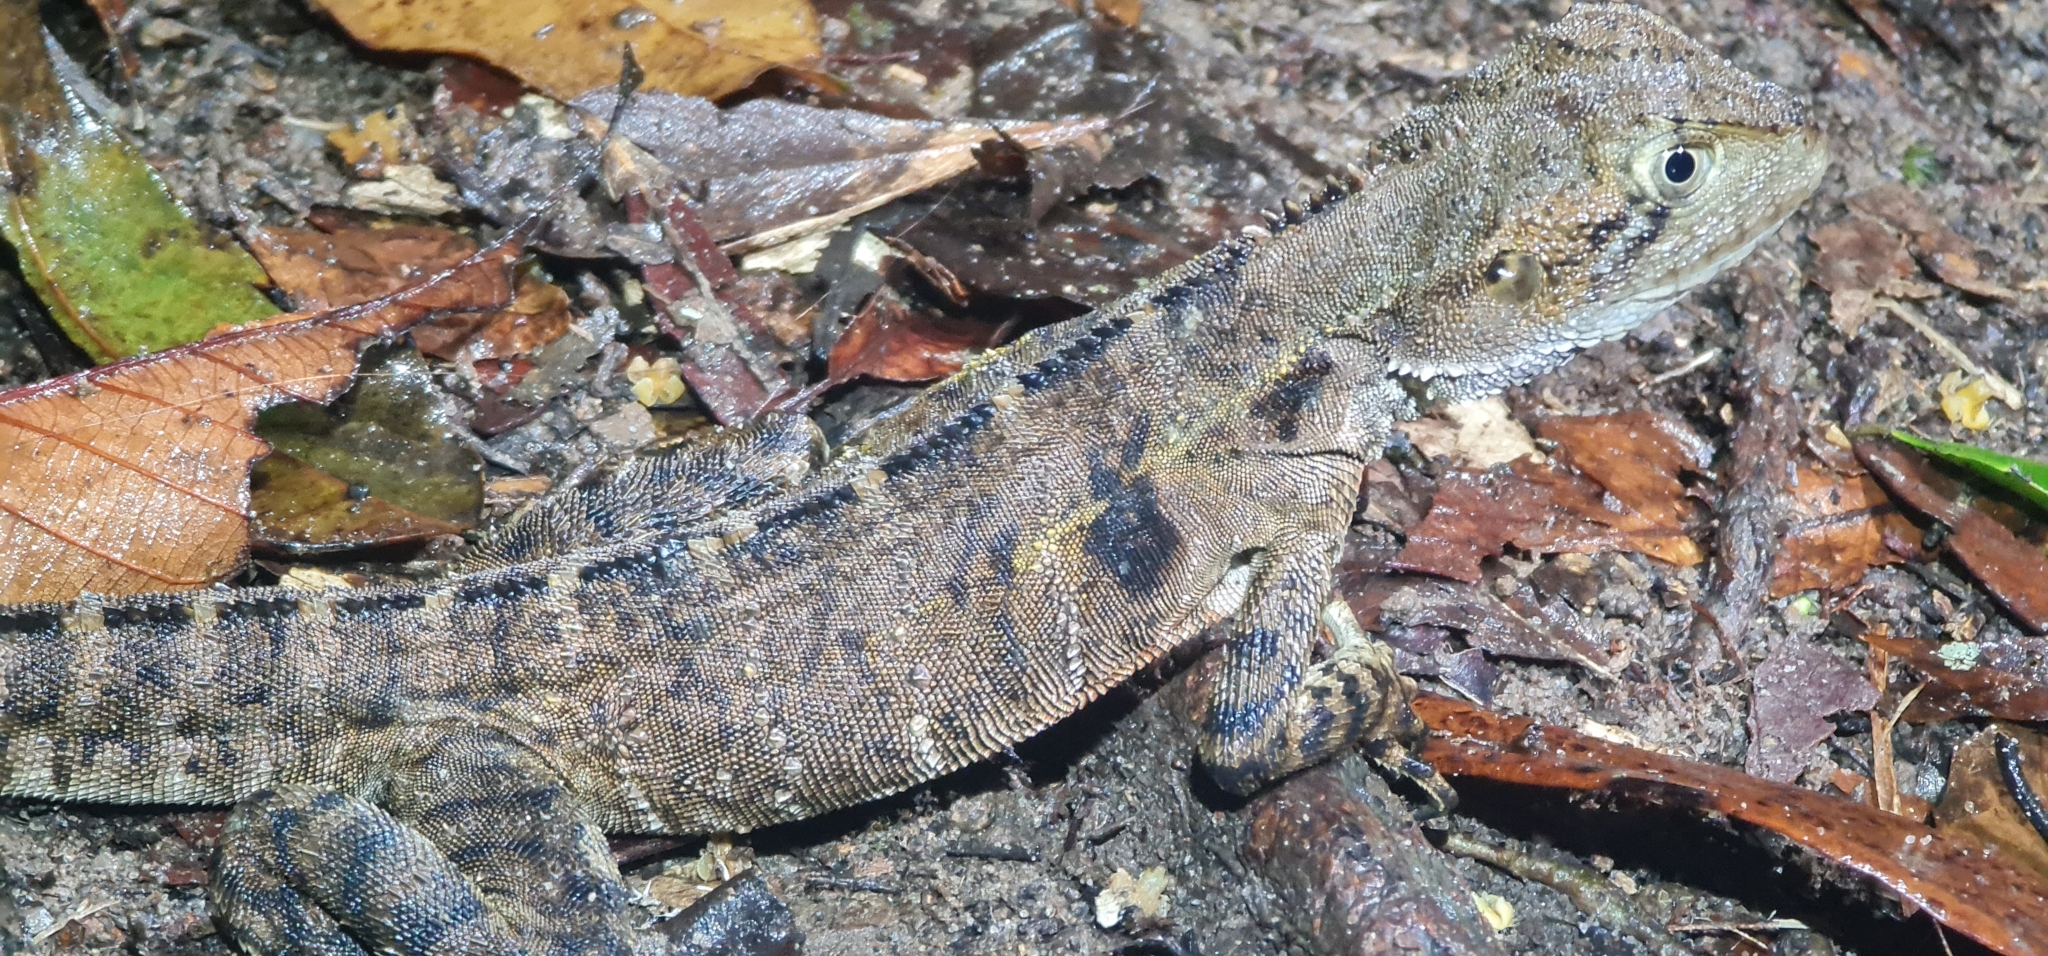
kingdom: Animalia
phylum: Chordata
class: Squamata
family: Agamidae
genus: Intellagama
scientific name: Intellagama lesueurii
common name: Eastern water dragon
